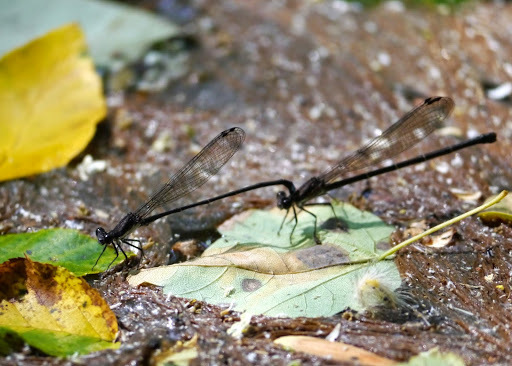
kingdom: Animalia
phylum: Arthropoda
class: Insecta
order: Odonata
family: Coenagrionidae
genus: Argia
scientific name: Argia tibialis
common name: Blue-tipped dancer
